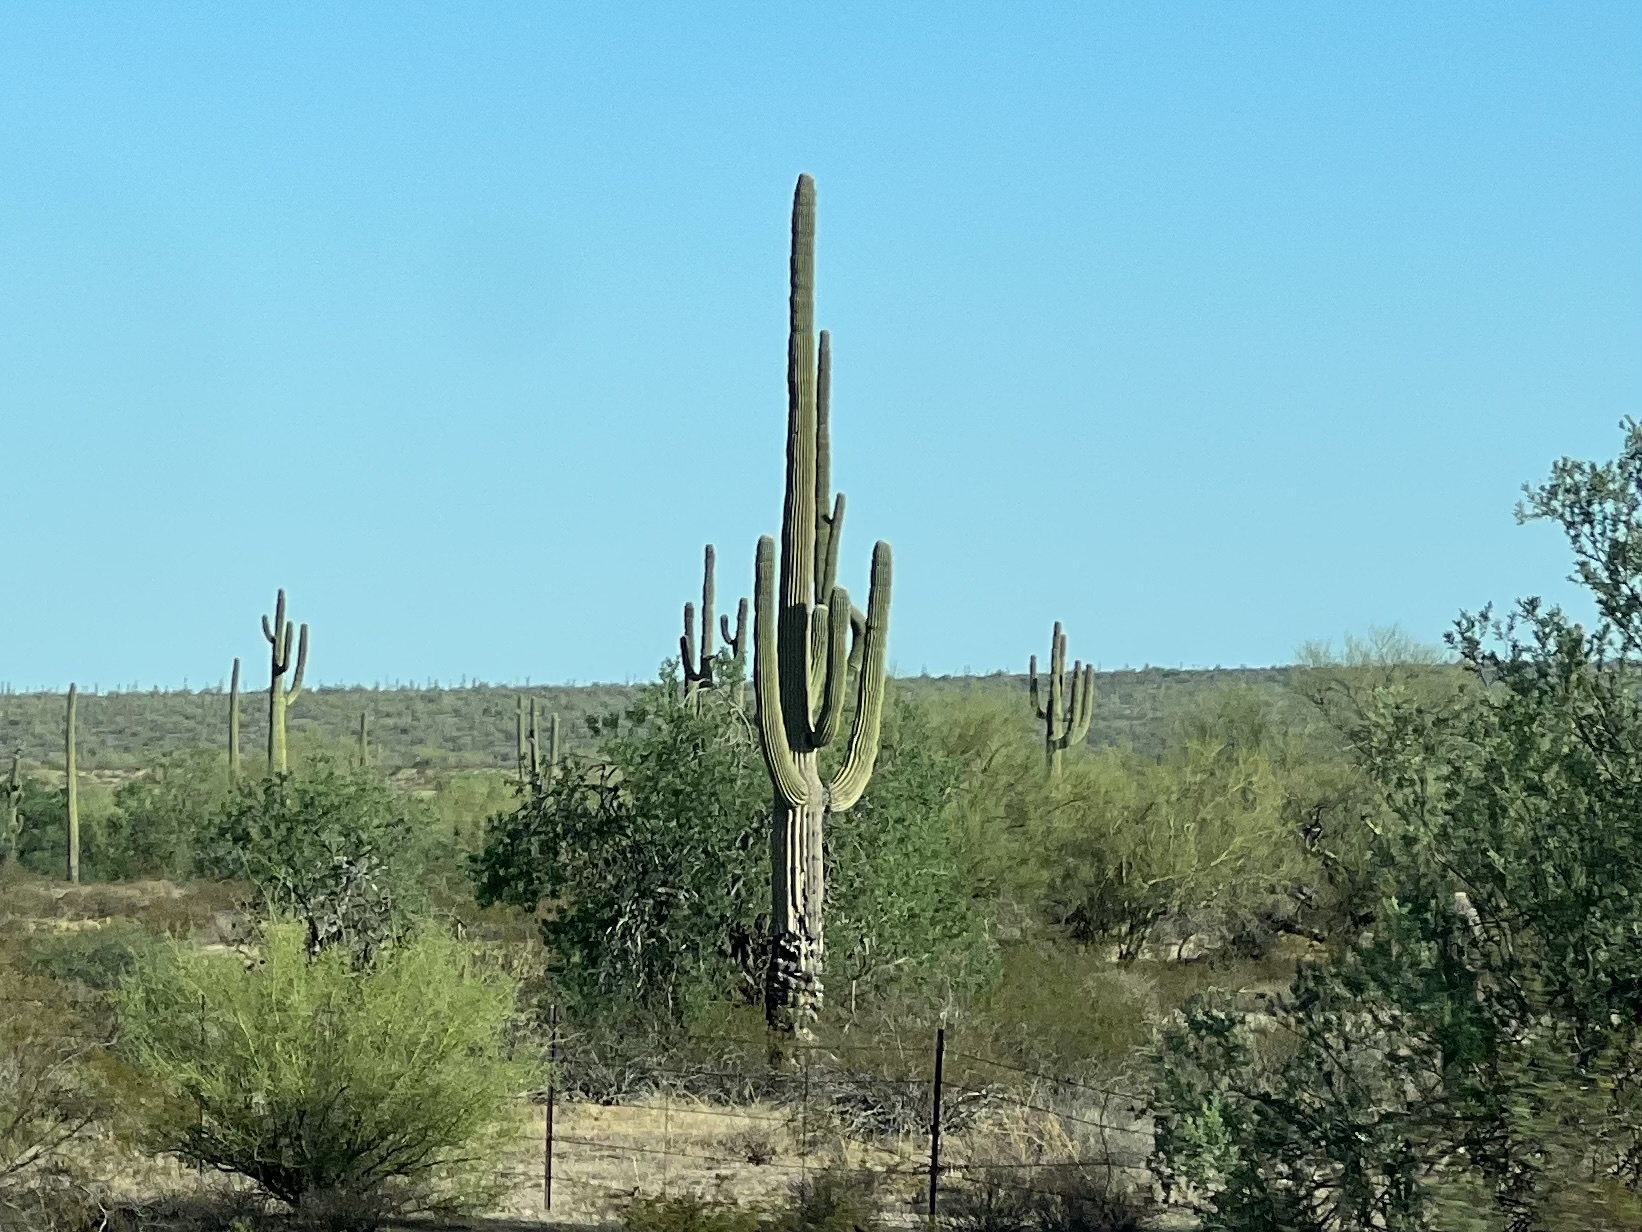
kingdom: Plantae
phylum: Tracheophyta
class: Magnoliopsida
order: Caryophyllales
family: Cactaceae
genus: Carnegiea
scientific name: Carnegiea gigantea
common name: Saguaro
